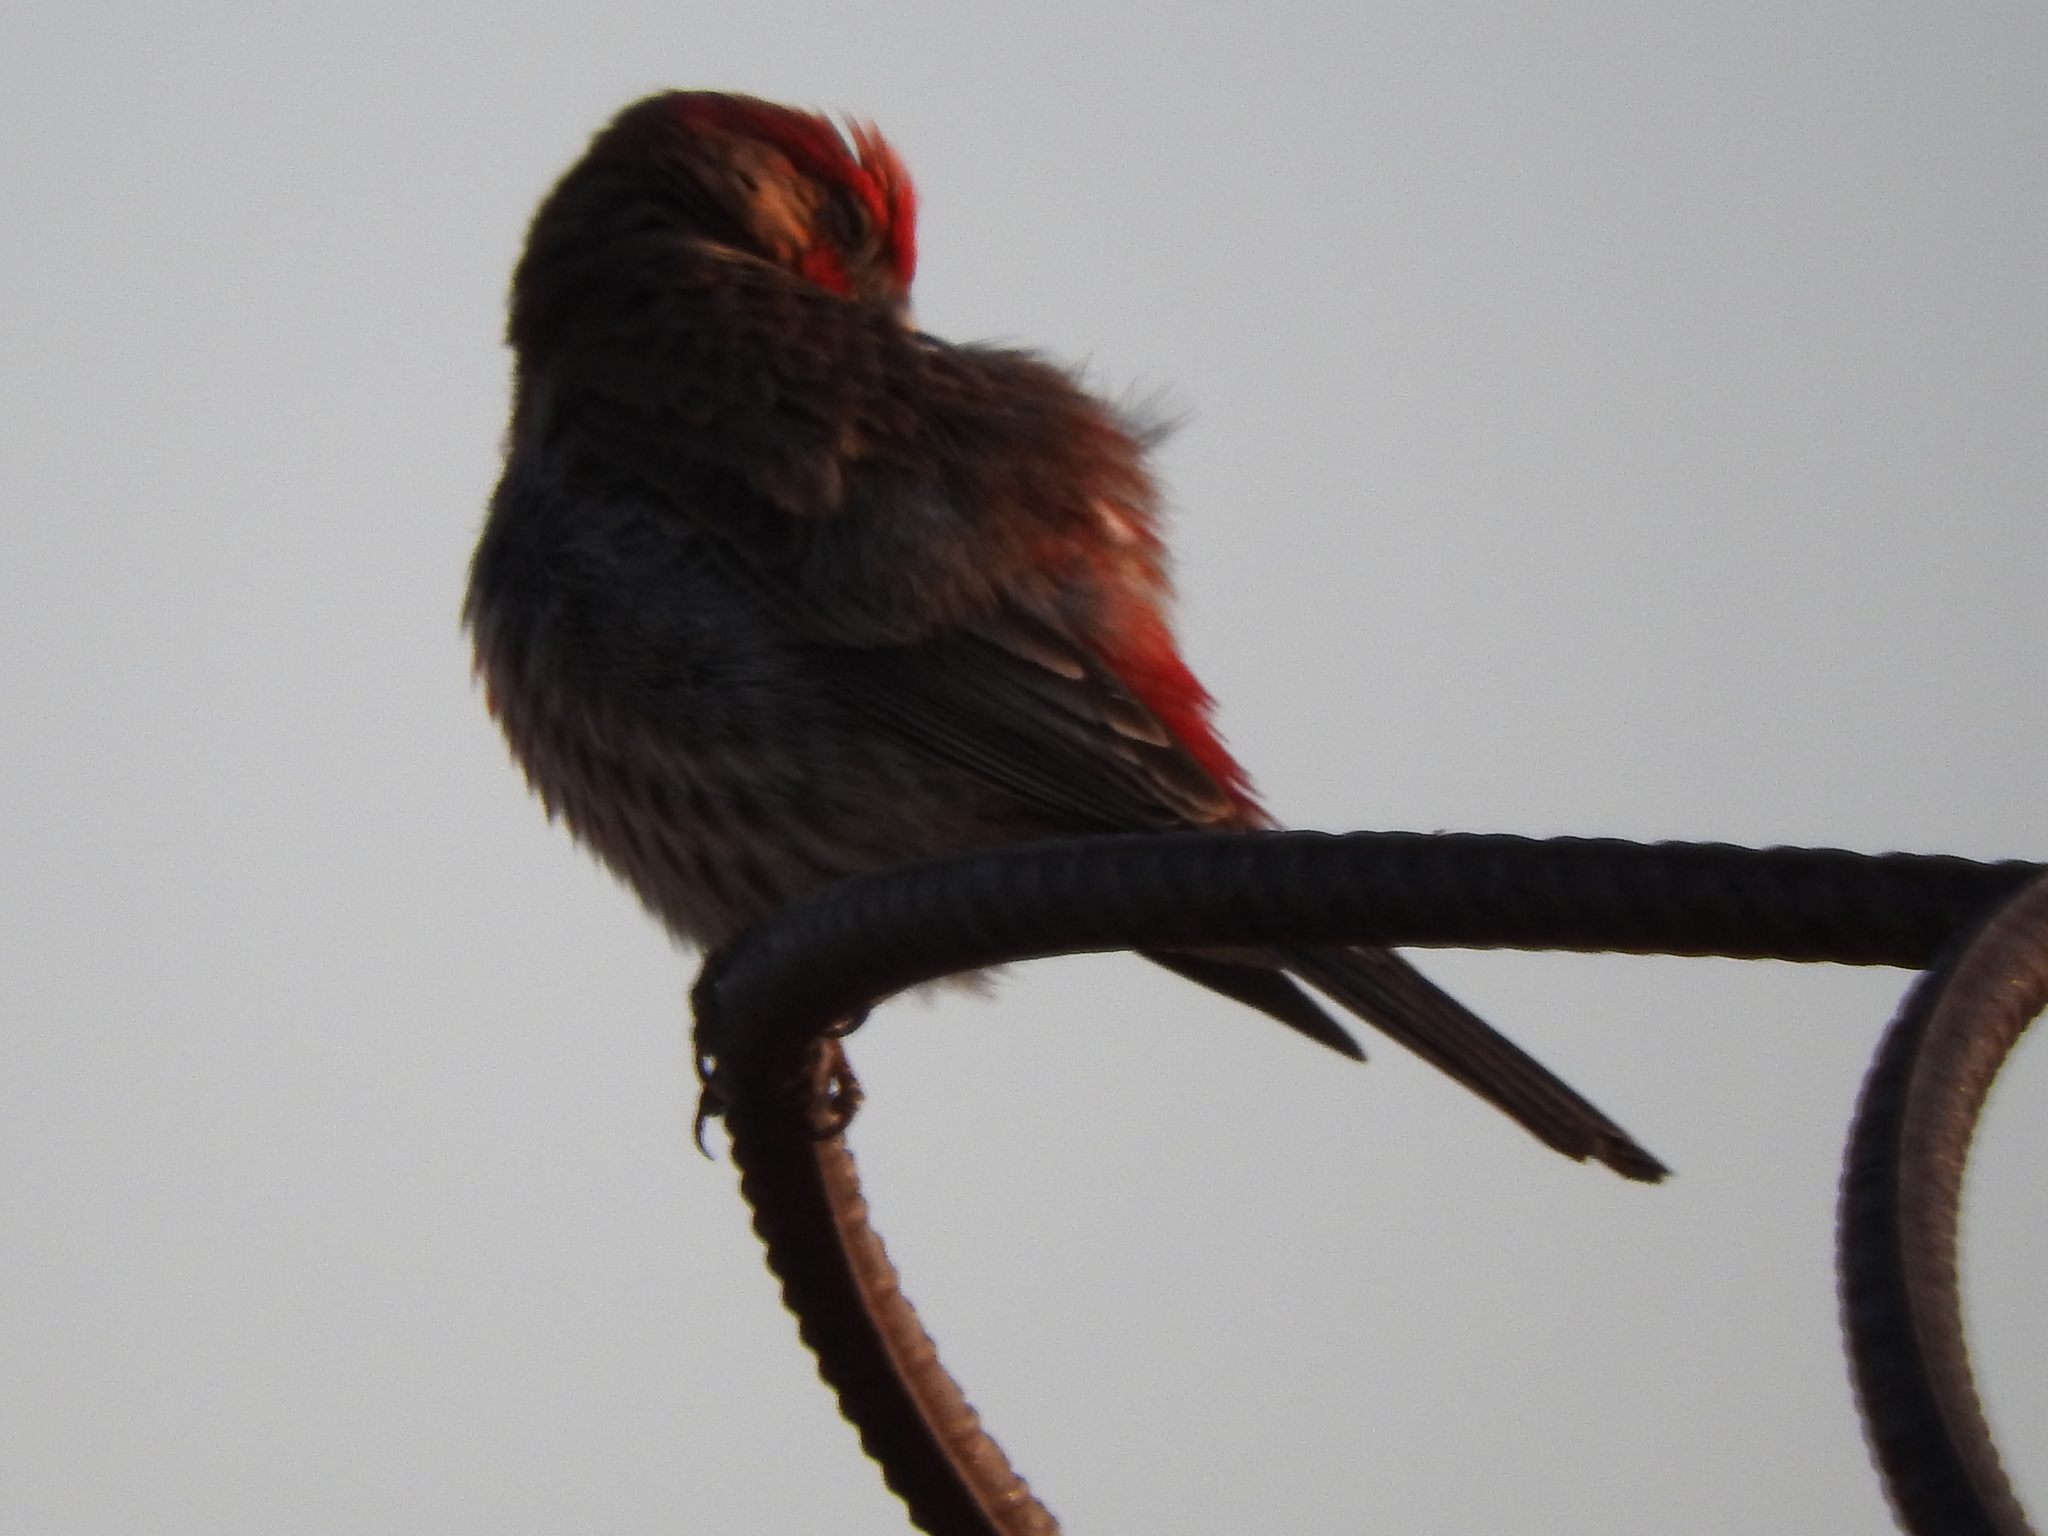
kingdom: Animalia
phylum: Chordata
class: Aves
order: Passeriformes
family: Fringillidae
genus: Haemorhous
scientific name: Haemorhous mexicanus
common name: House finch
